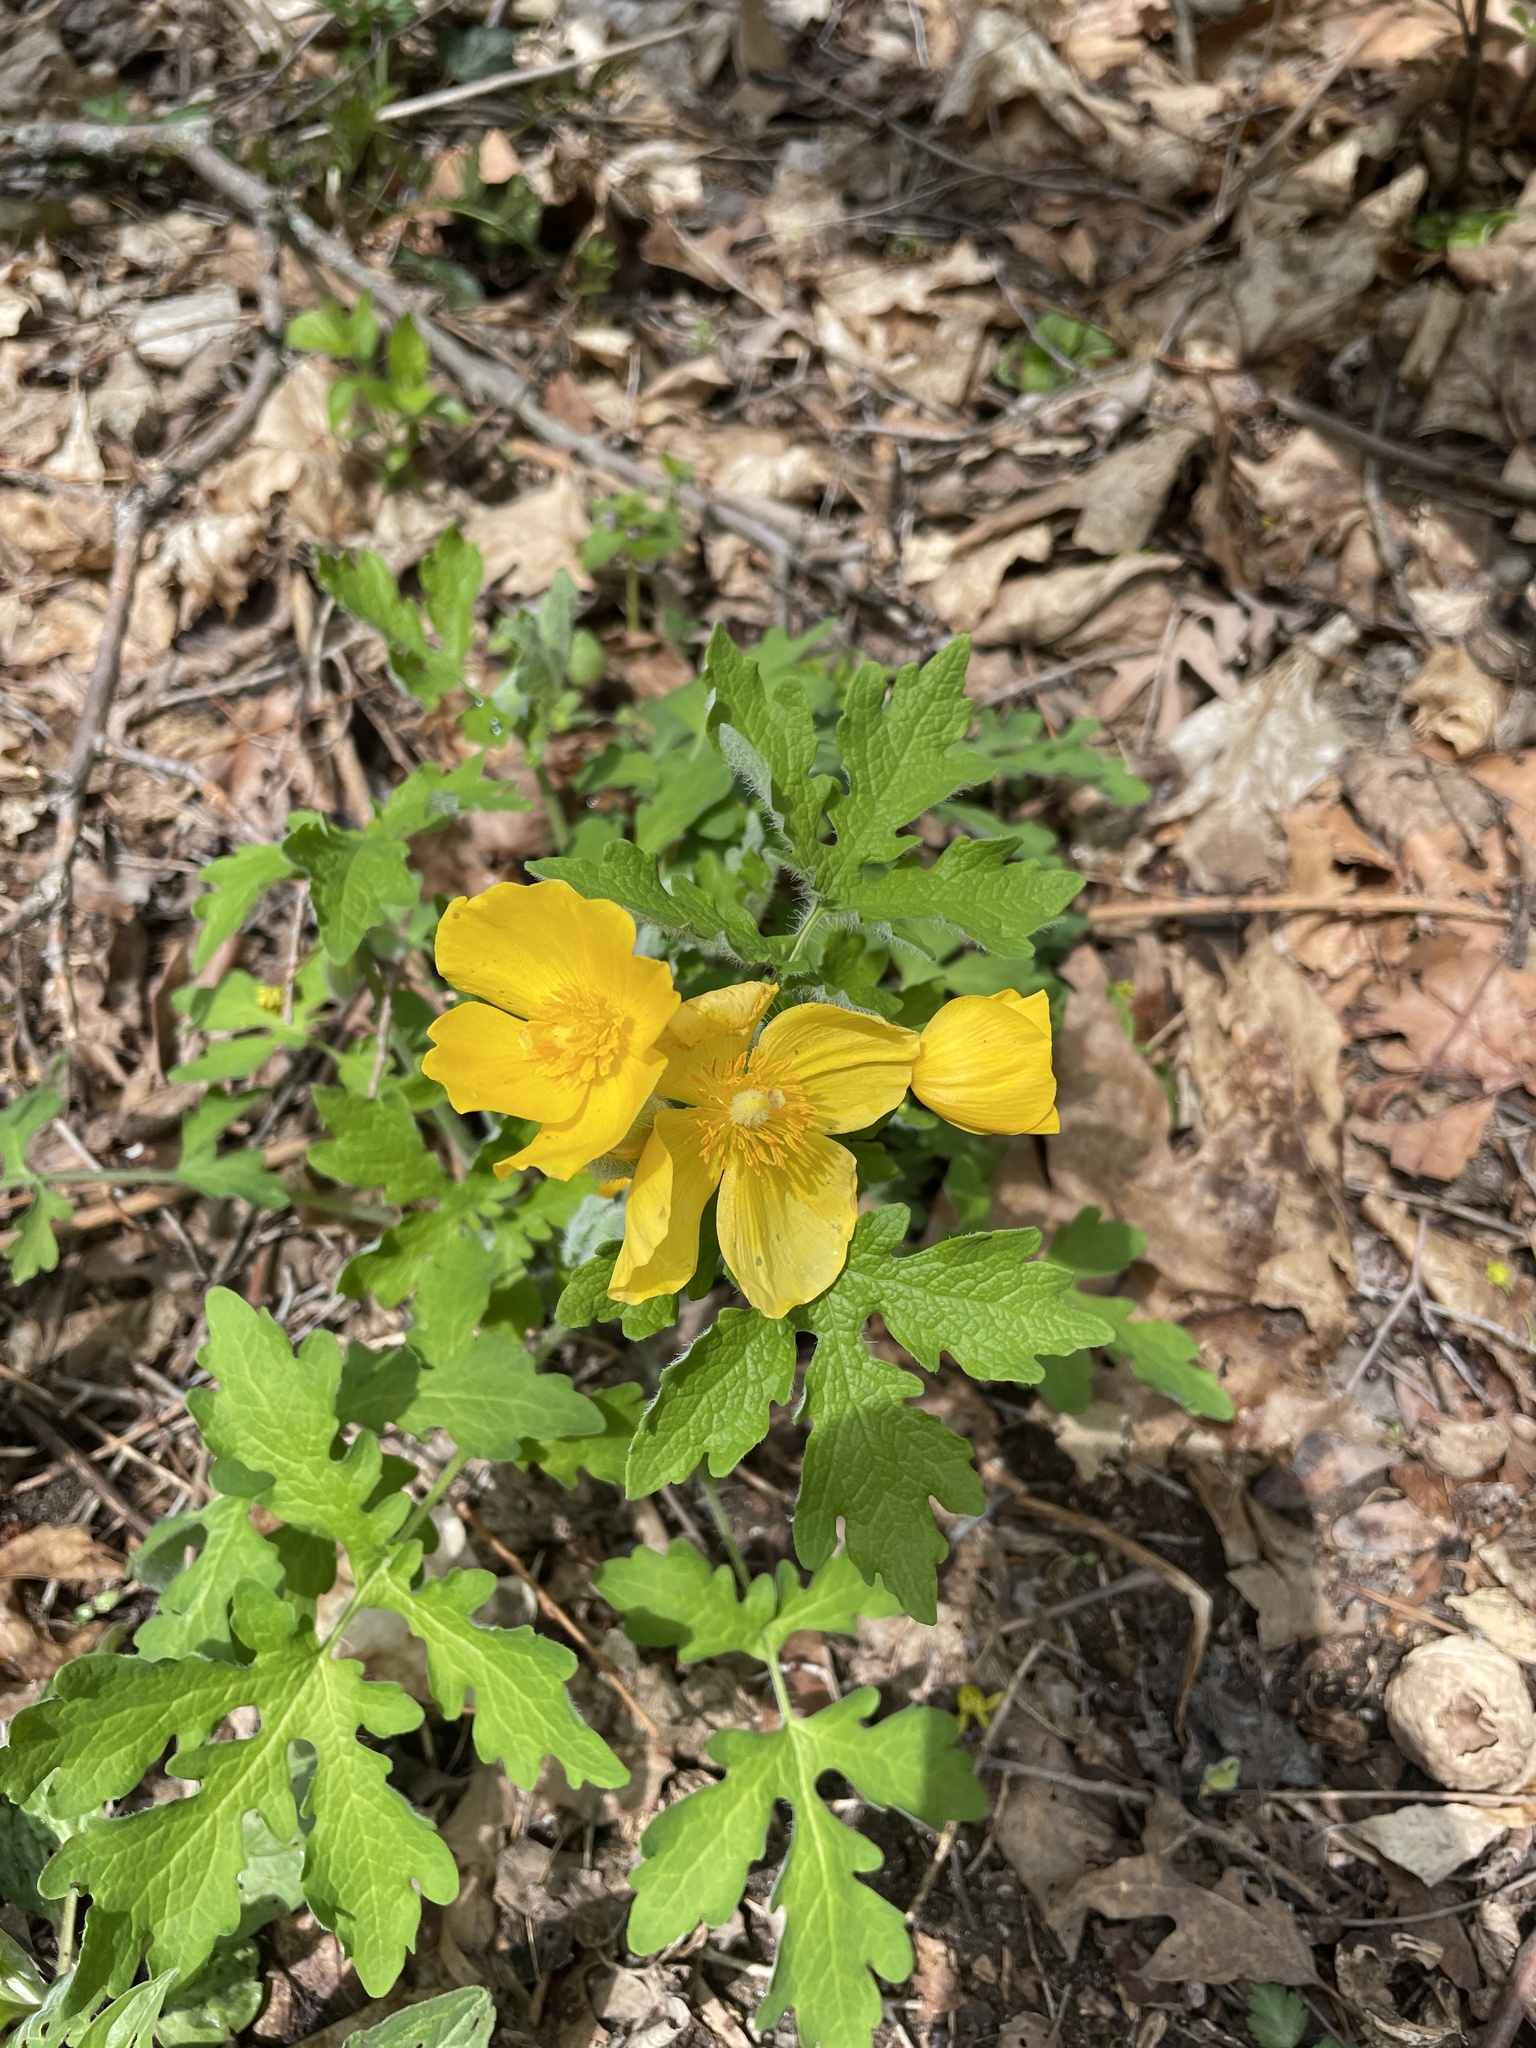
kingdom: Plantae
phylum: Tracheophyta
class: Magnoliopsida
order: Ranunculales
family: Papaveraceae
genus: Stylophorum
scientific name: Stylophorum diphyllum
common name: Celandine poppy
